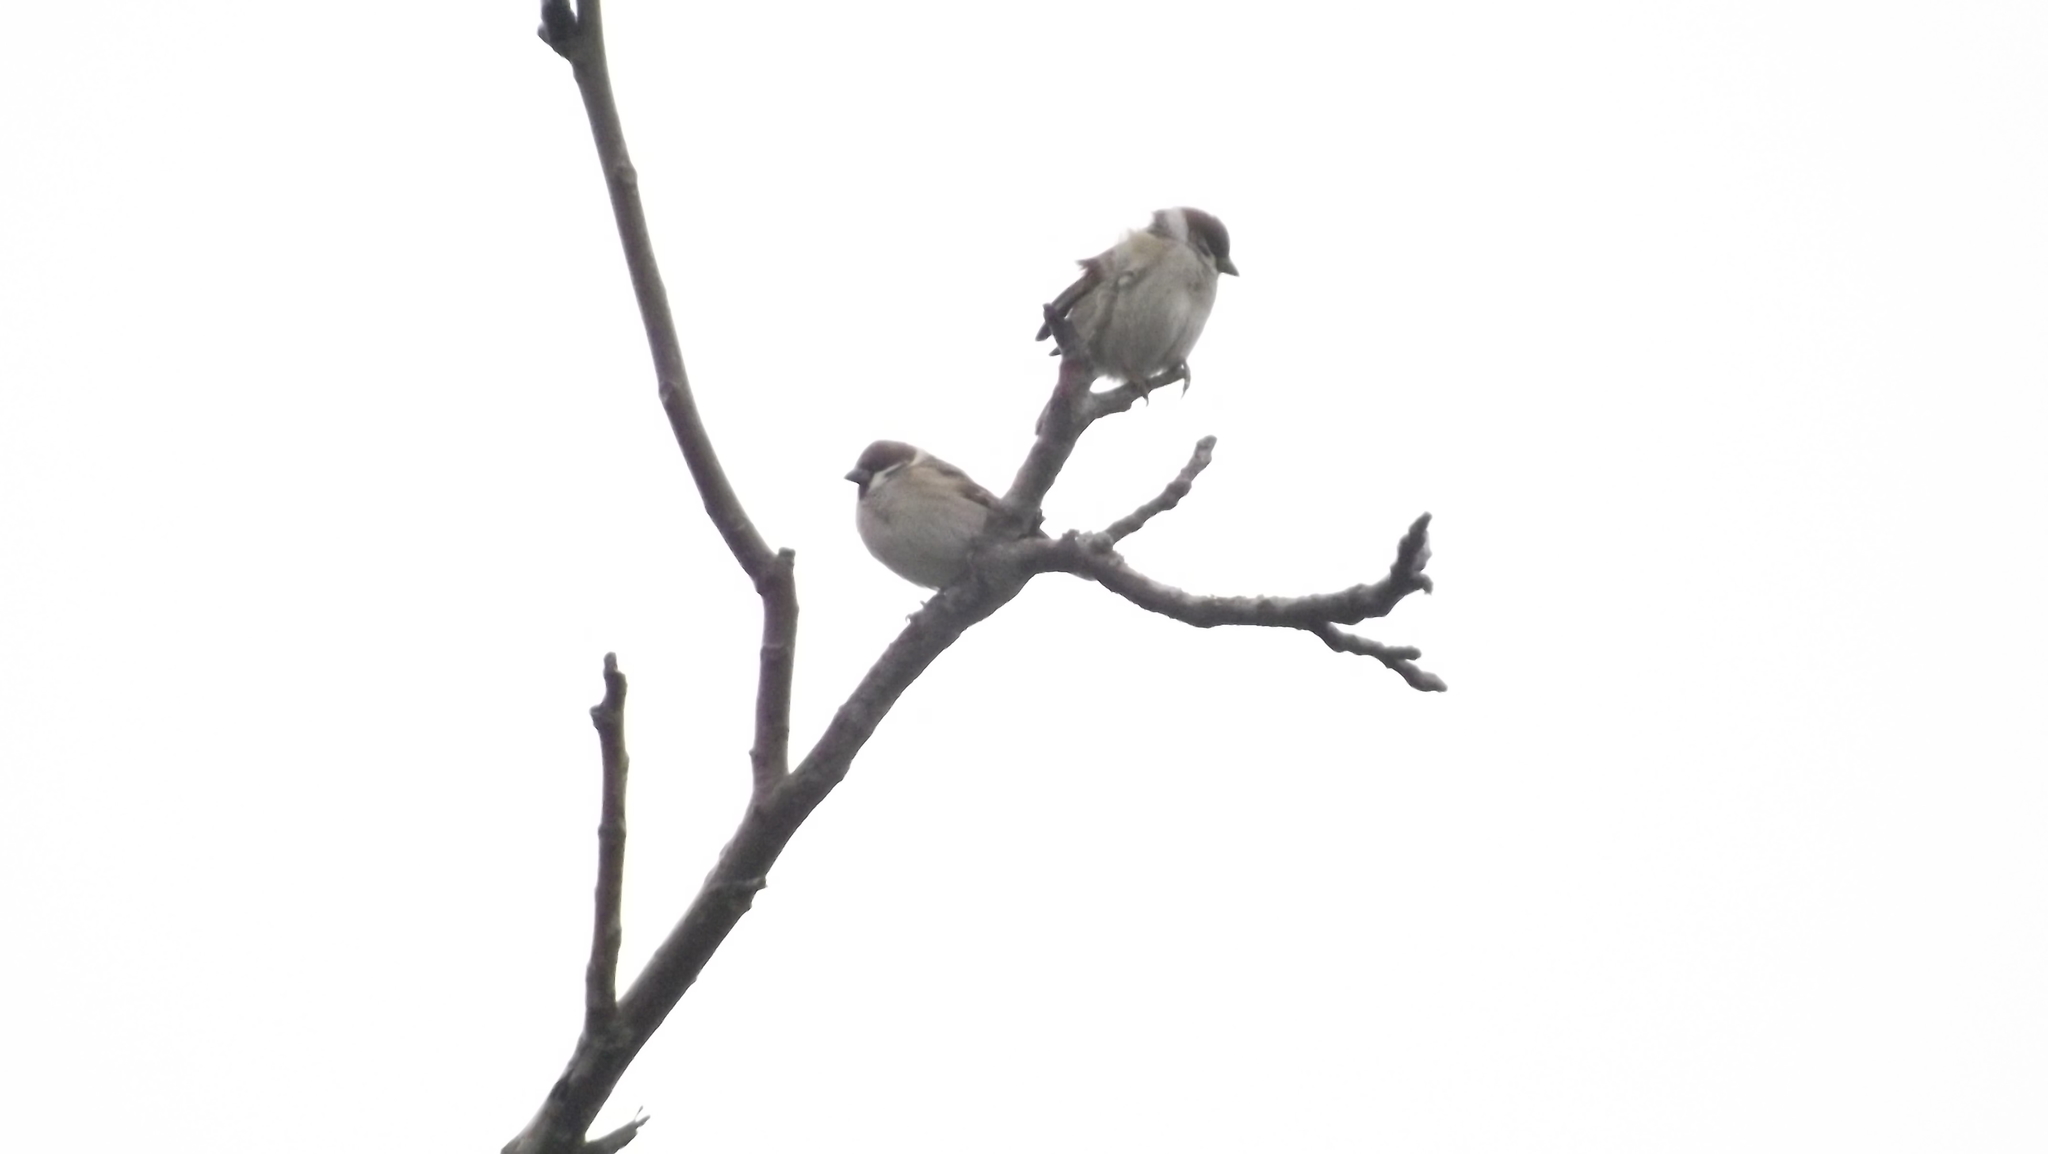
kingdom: Animalia
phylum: Chordata
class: Aves
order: Passeriformes
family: Passeridae
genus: Passer
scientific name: Passer montanus
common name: Eurasian tree sparrow
